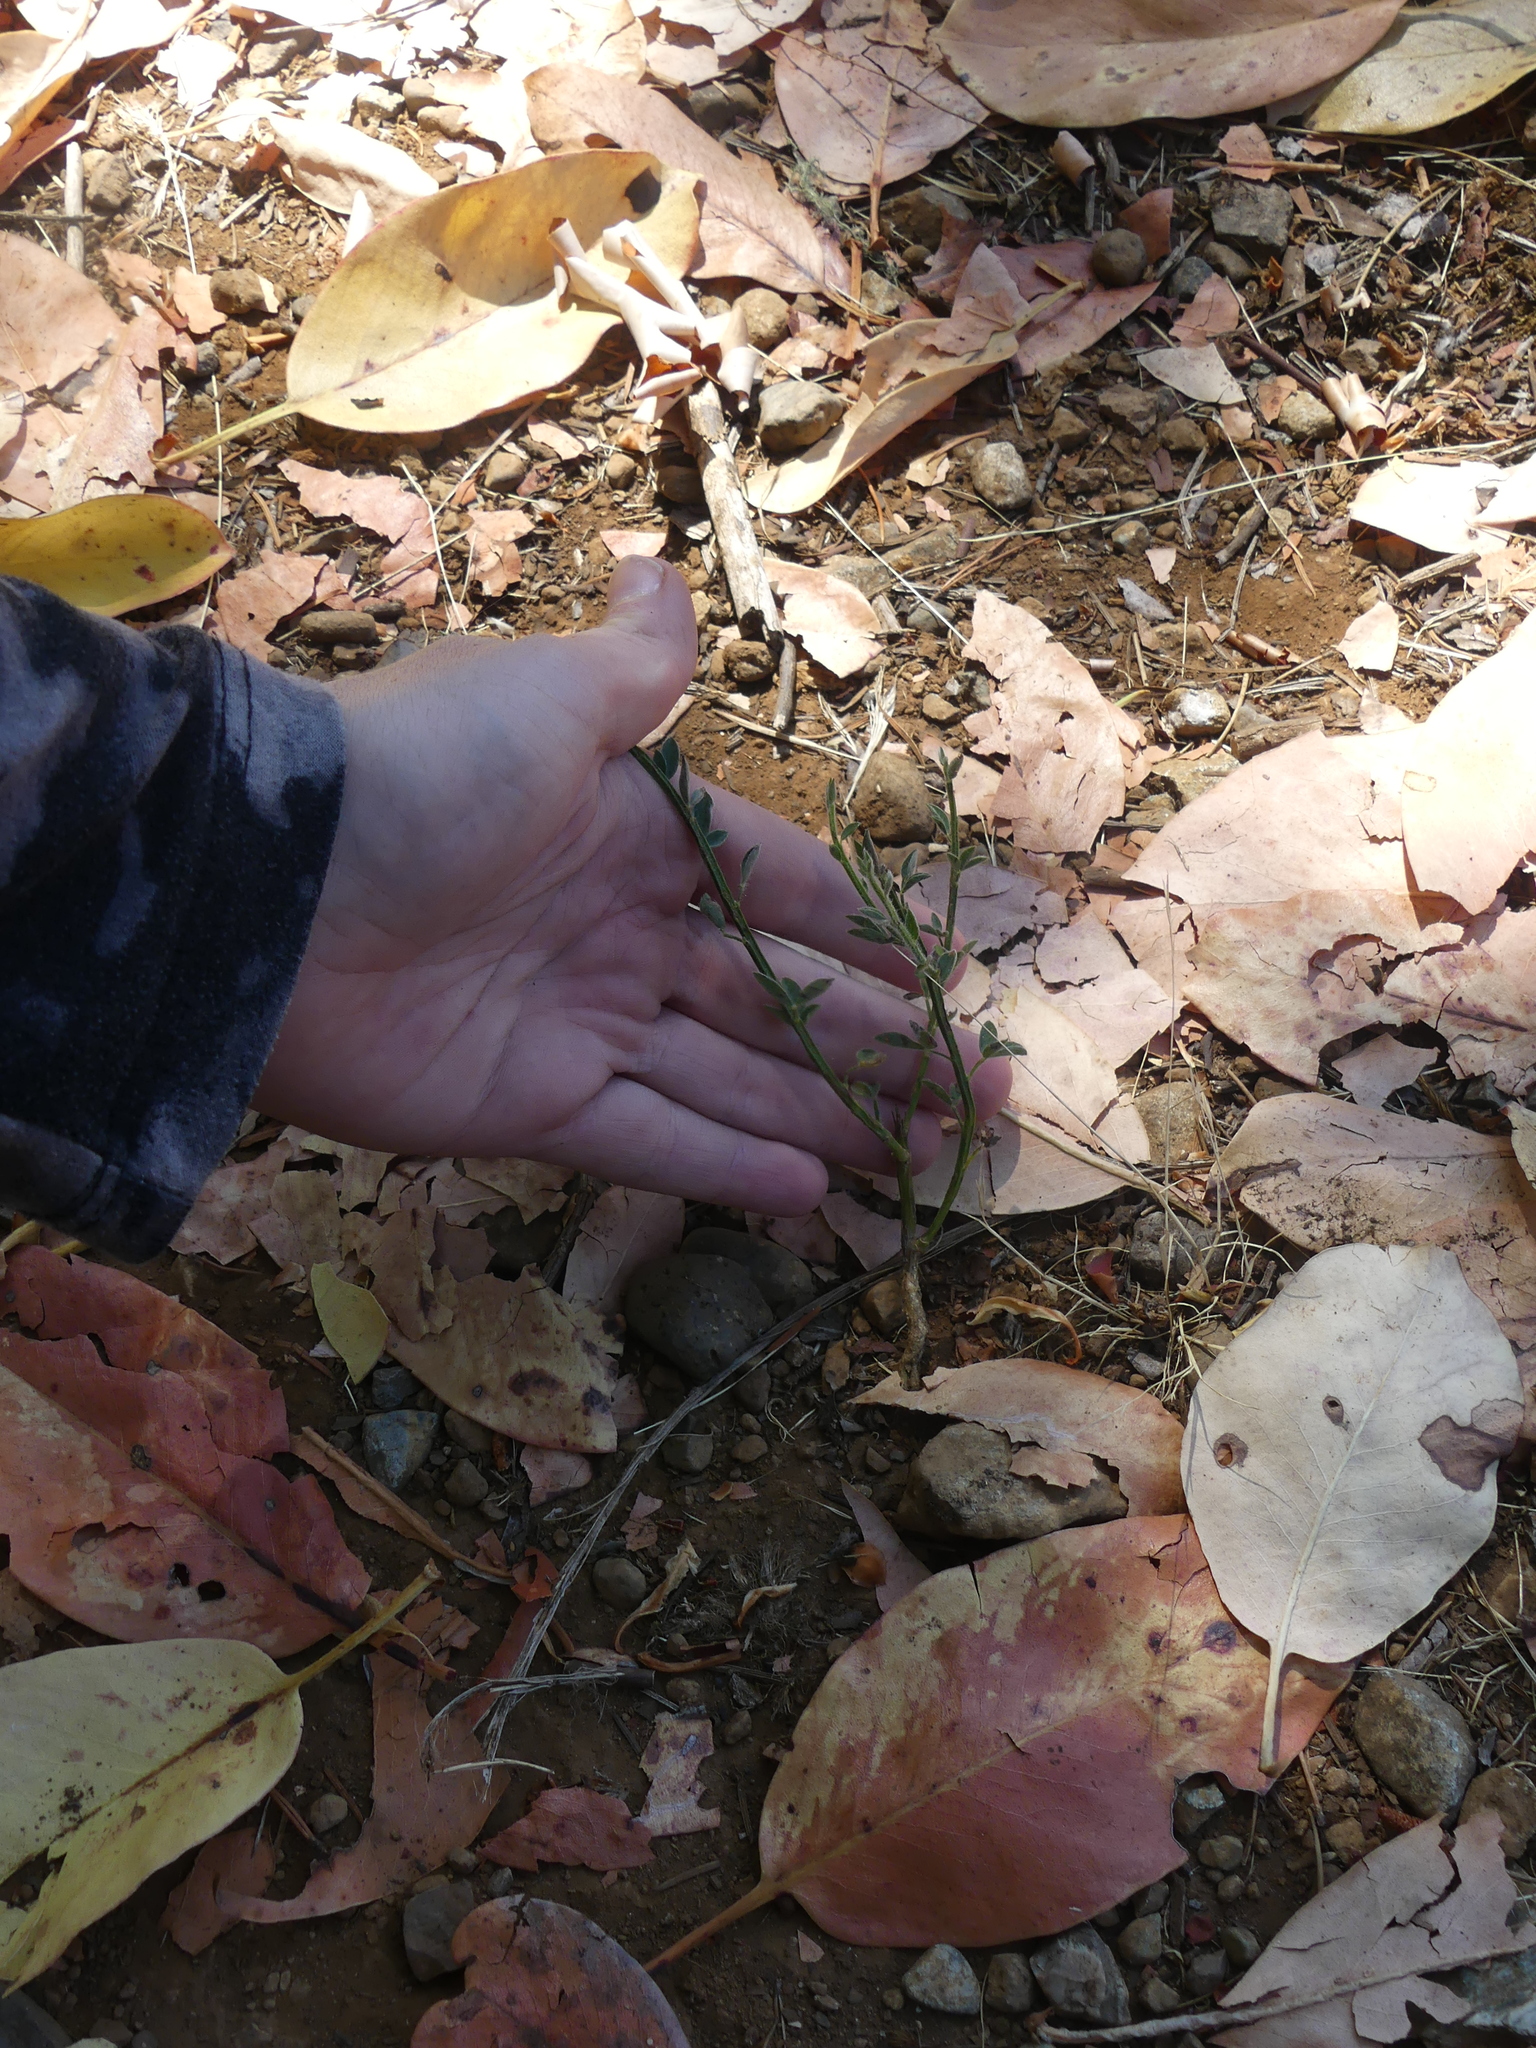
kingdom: Plantae
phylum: Tracheophyta
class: Magnoliopsida
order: Fabales
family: Fabaceae
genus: Cytisus
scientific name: Cytisus scoparius
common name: Scotch broom
